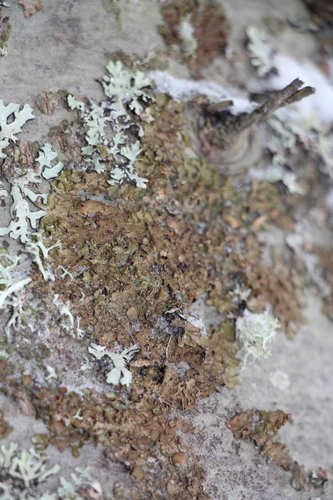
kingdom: Fungi
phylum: Ascomycota
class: Lecanoromycetes
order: Lecanorales
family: Parmeliaceae
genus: Melanohalea
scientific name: Melanohalea
